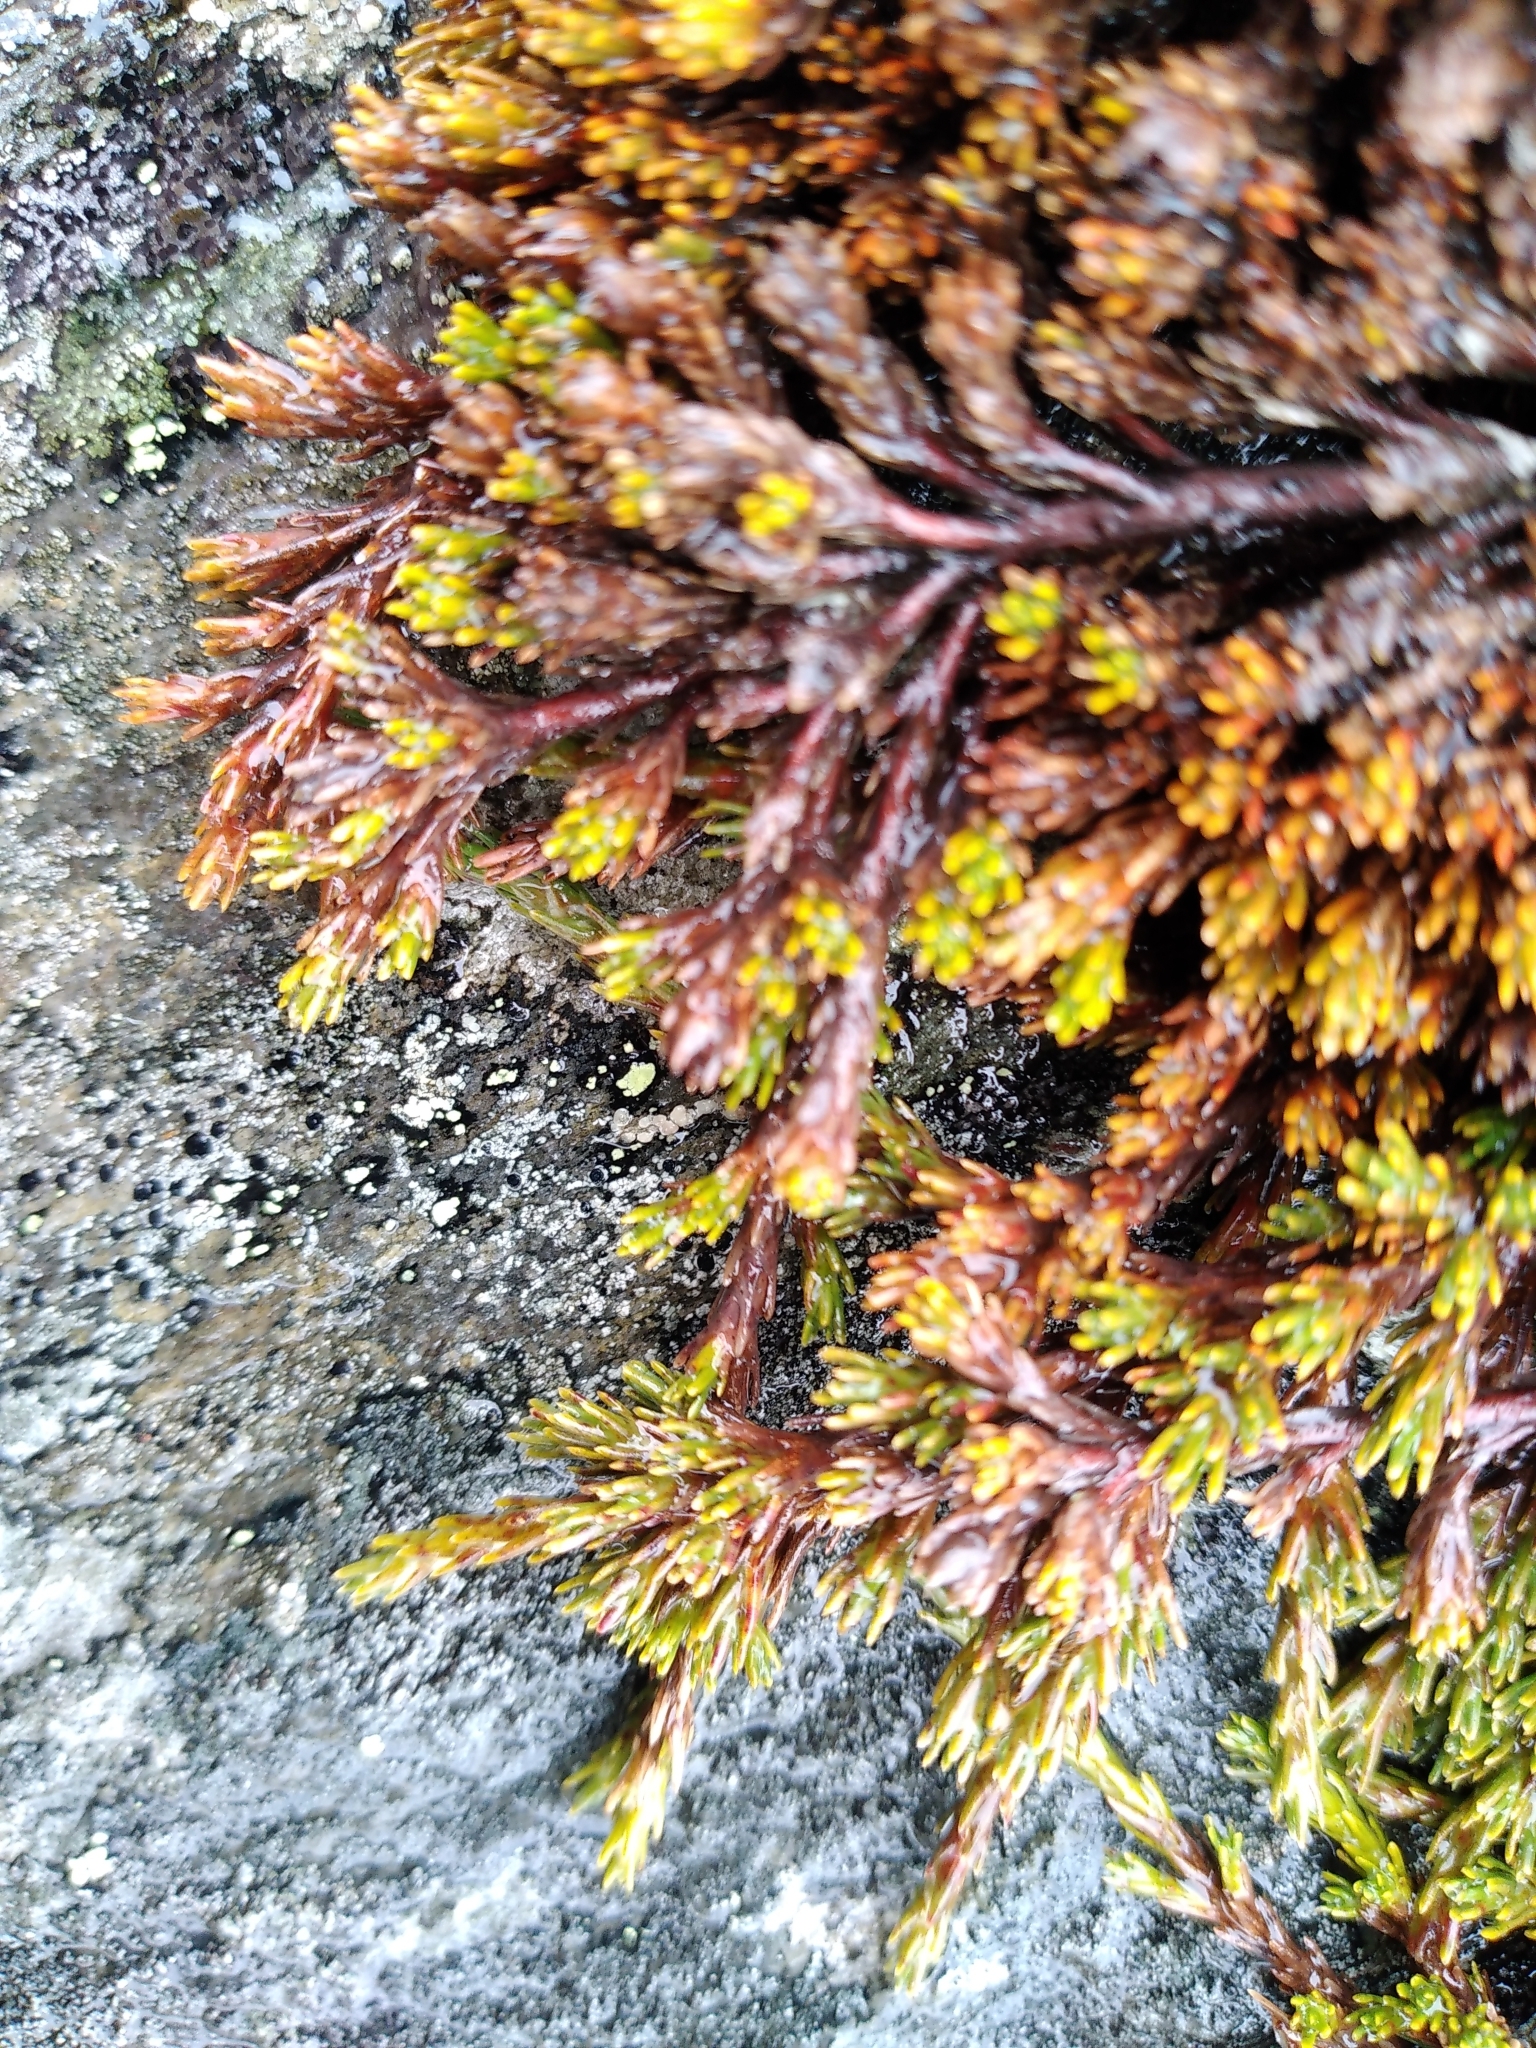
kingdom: Plantae
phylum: Tracheophyta
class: Magnoliopsida
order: Ericales
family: Ericaceae
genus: Dracophyllum
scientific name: Dracophyllum muscoides
